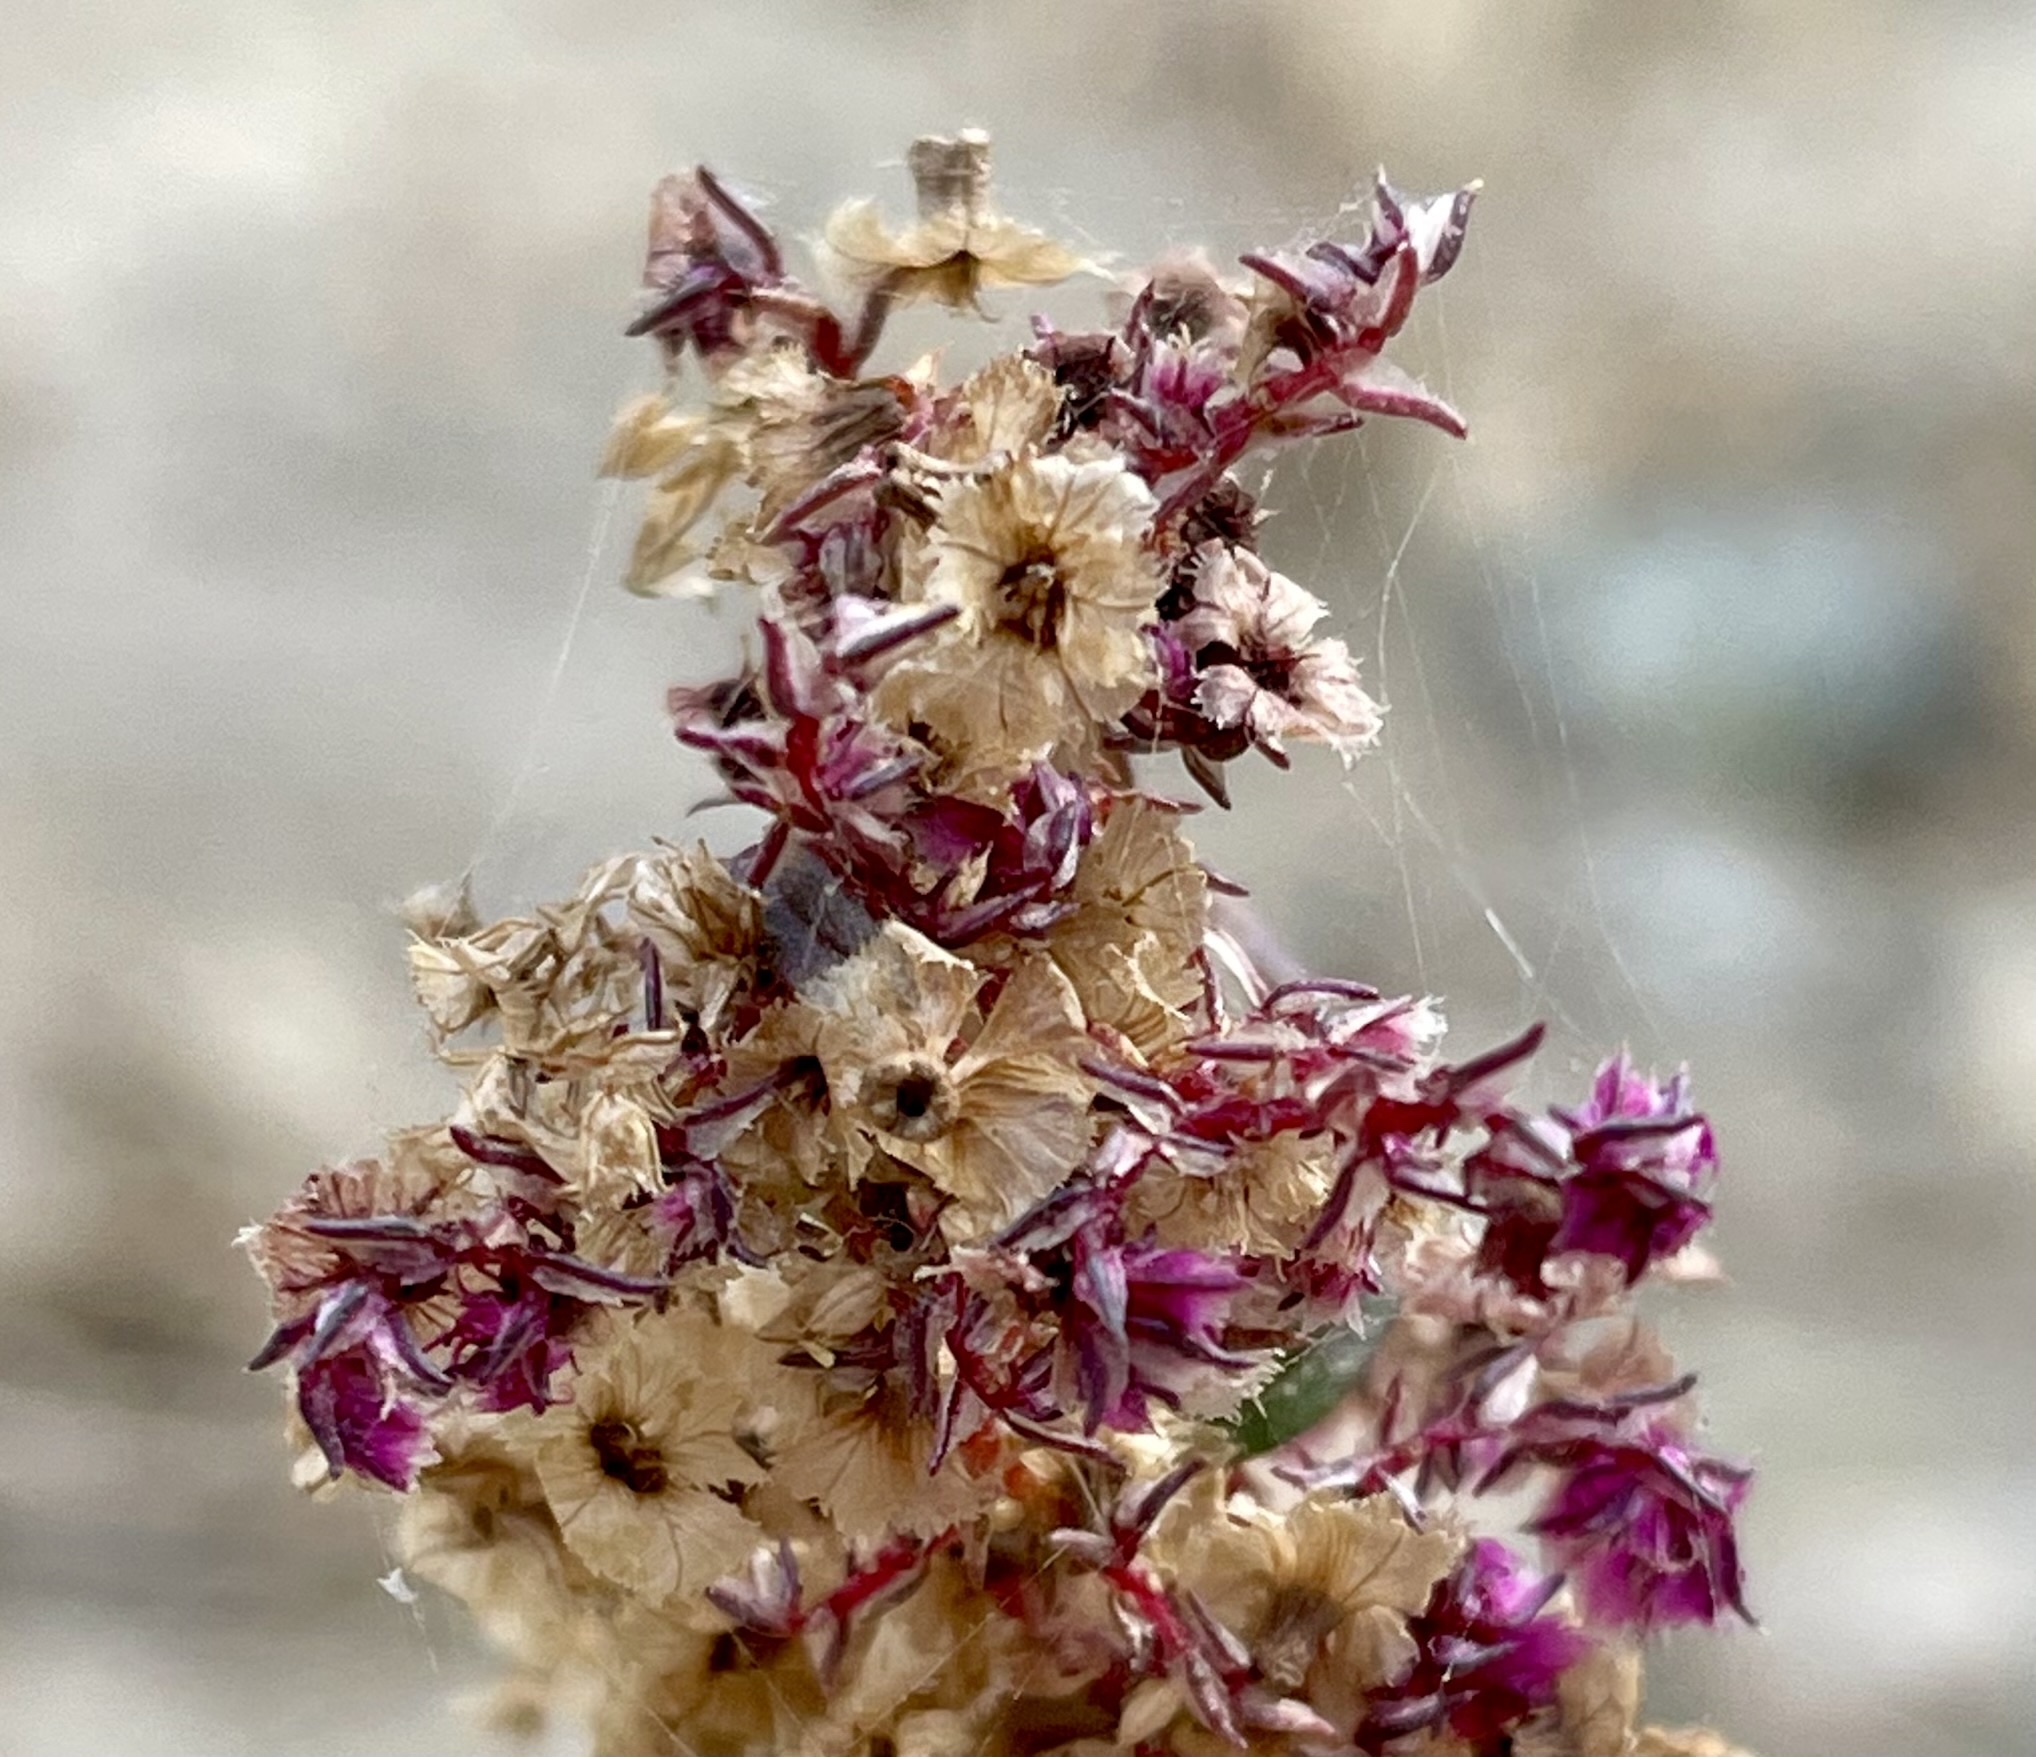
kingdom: Plantae
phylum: Tracheophyta
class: Magnoliopsida
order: Caryophyllales
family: Amaranthaceae
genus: Amaranthus
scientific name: Amaranthus fimbriatus
